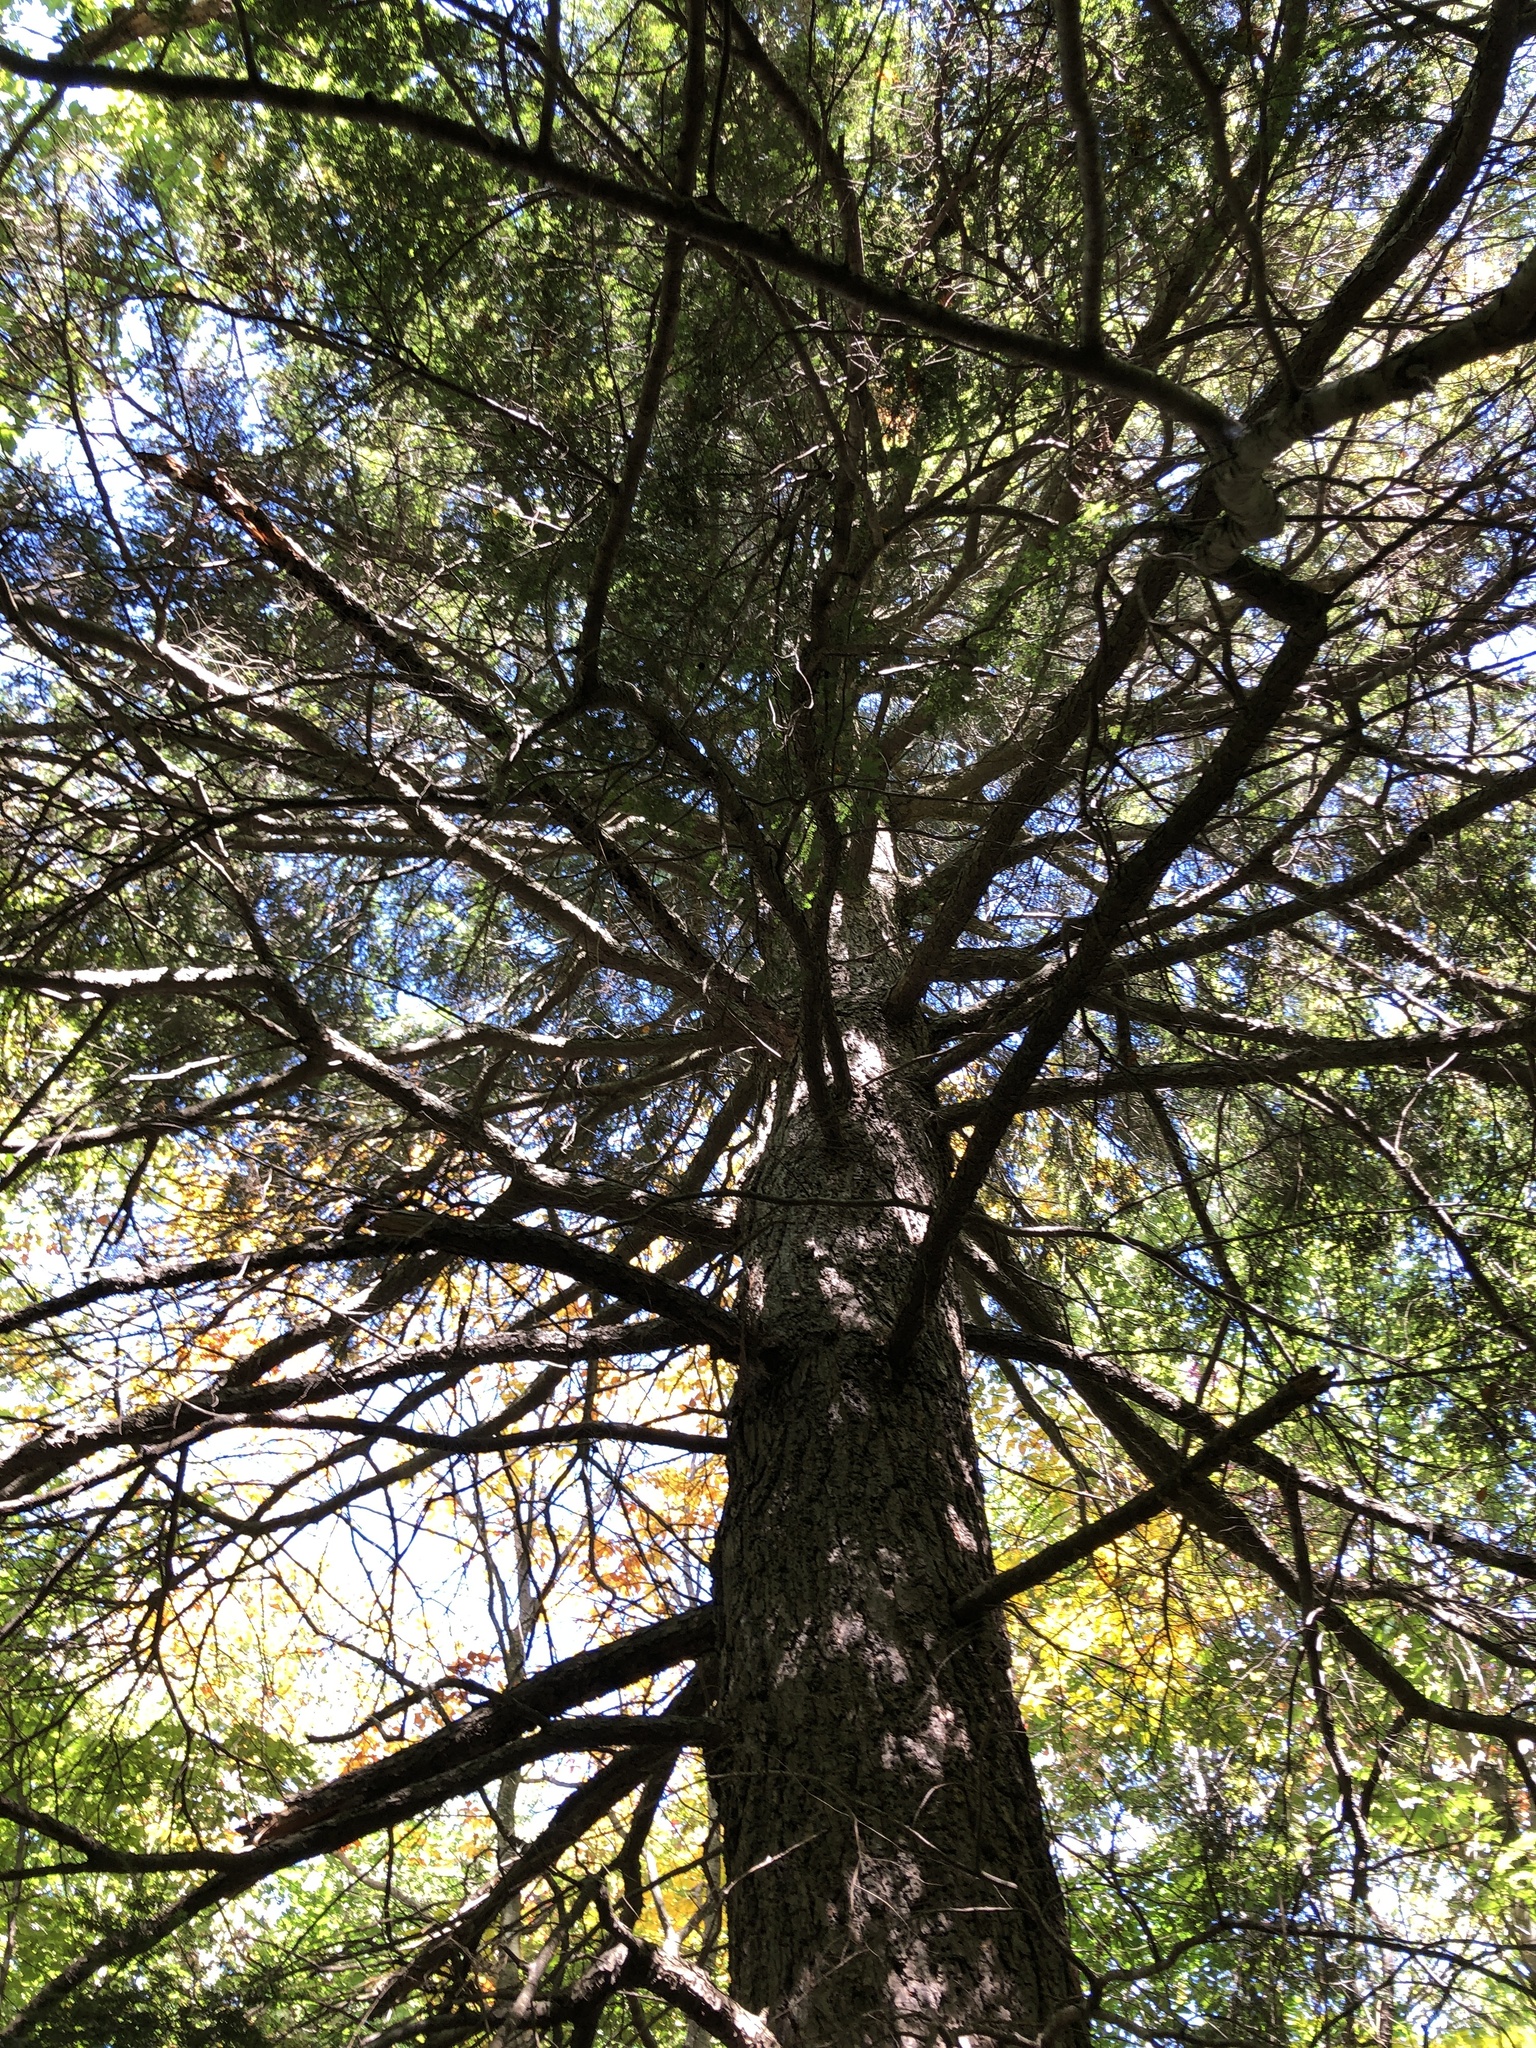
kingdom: Plantae
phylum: Tracheophyta
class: Pinopsida
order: Pinales
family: Pinaceae
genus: Tsuga
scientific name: Tsuga canadensis
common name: Eastern hemlock
